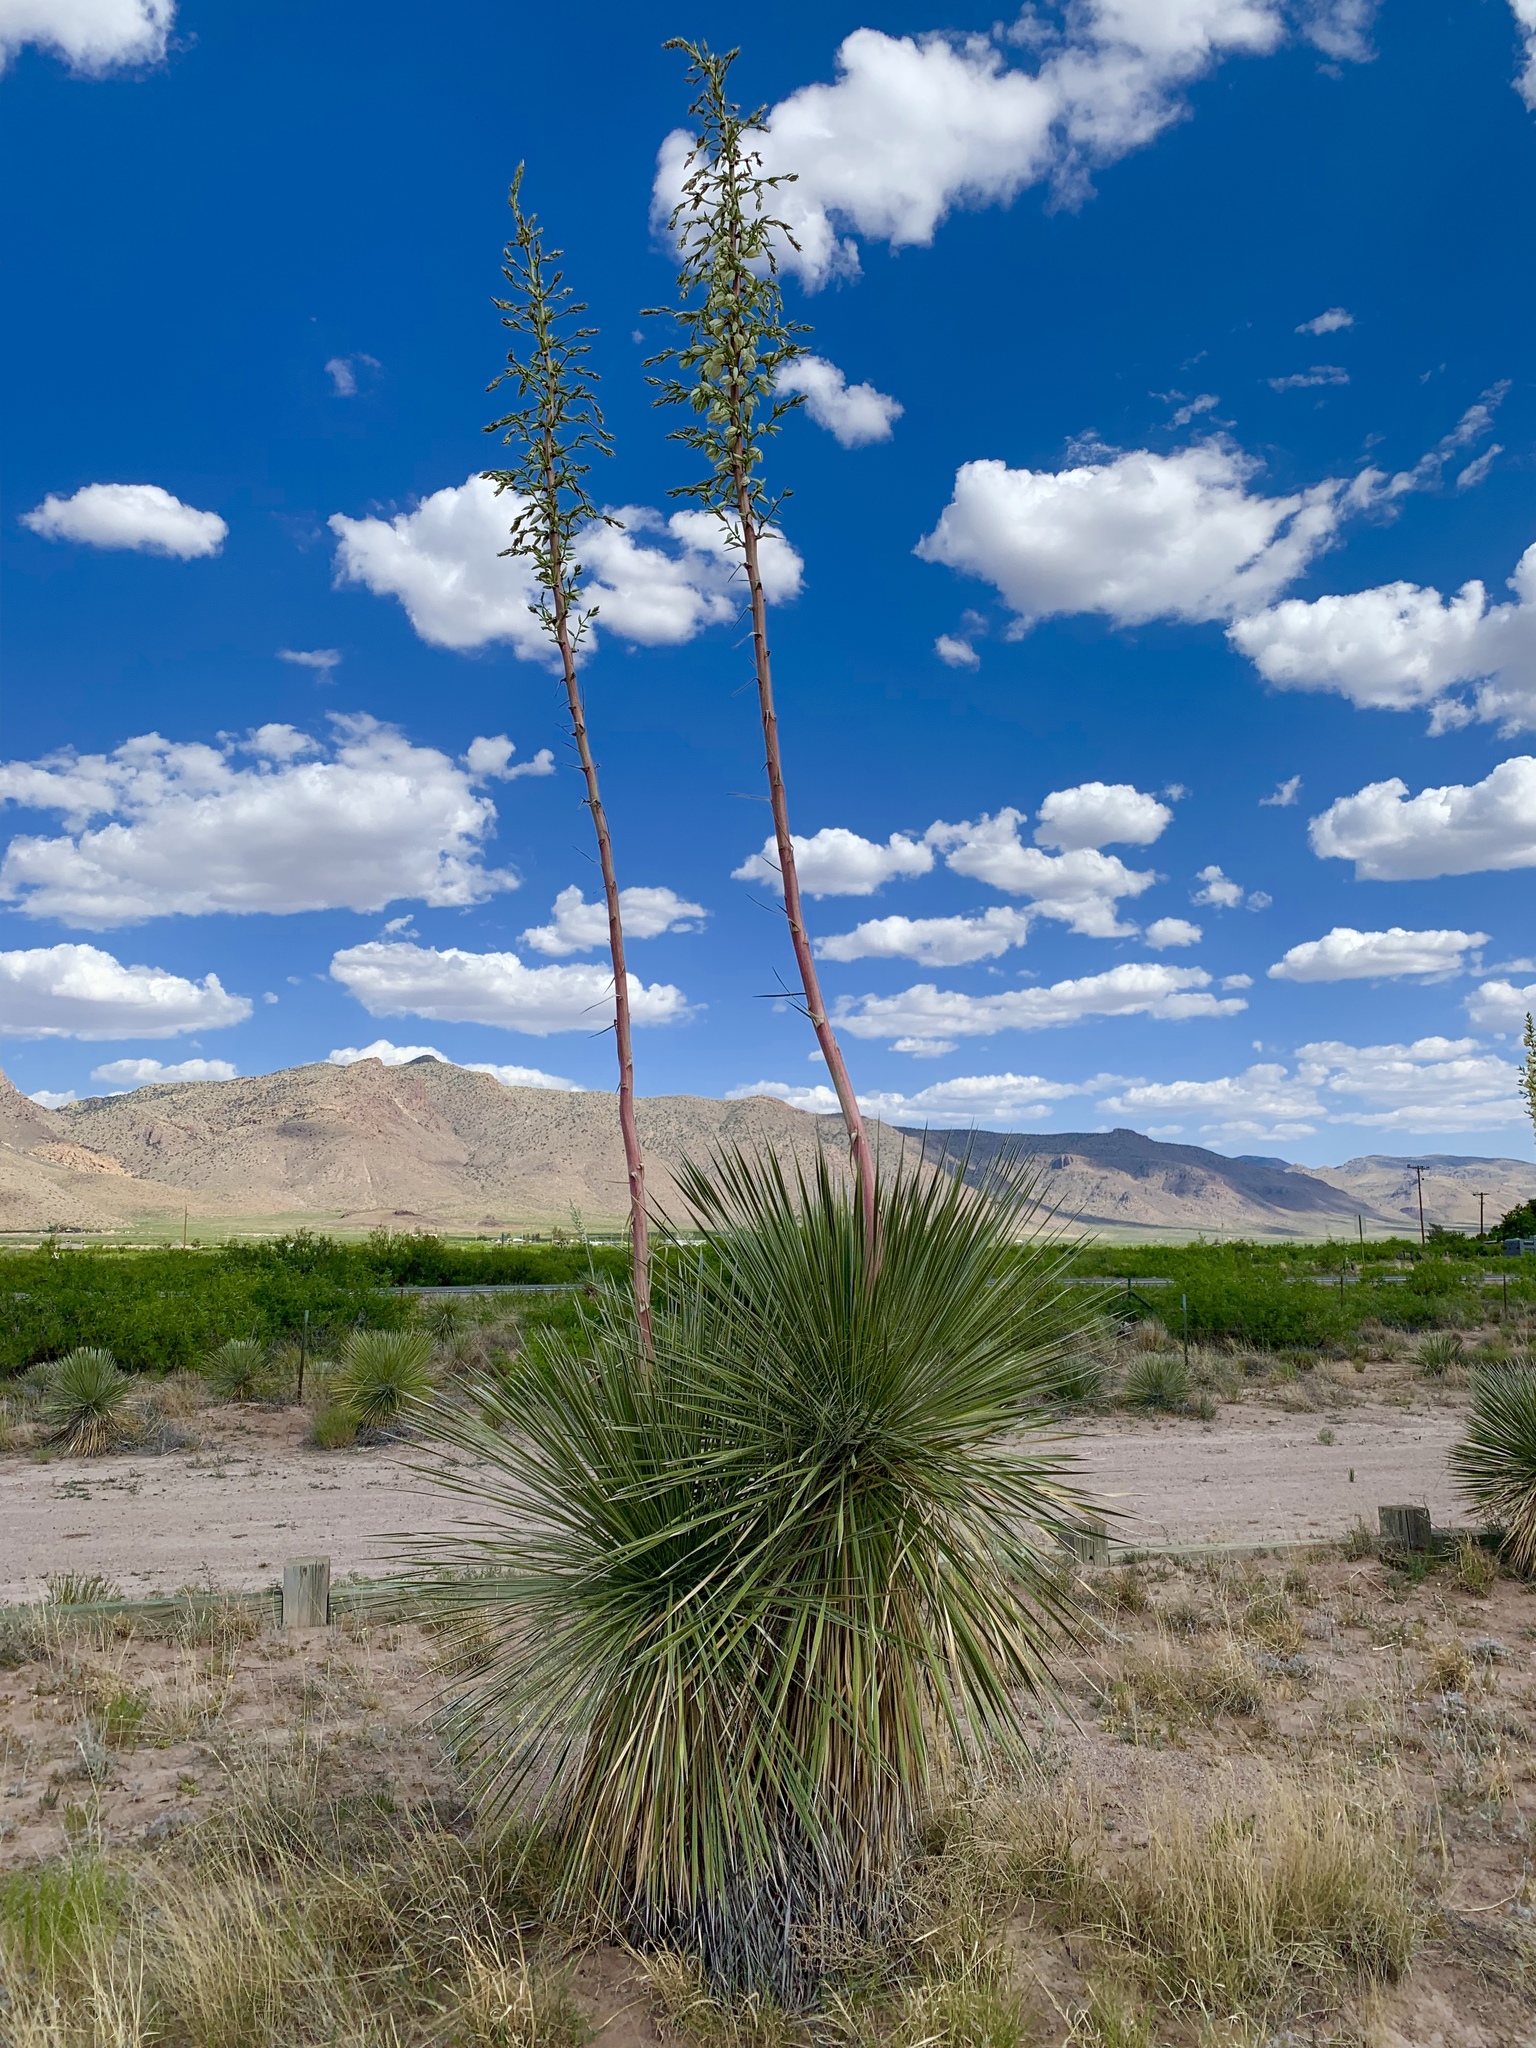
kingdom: Plantae
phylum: Tracheophyta
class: Liliopsida
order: Asparagales
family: Asparagaceae
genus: Yucca
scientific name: Yucca elata
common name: Palmella
